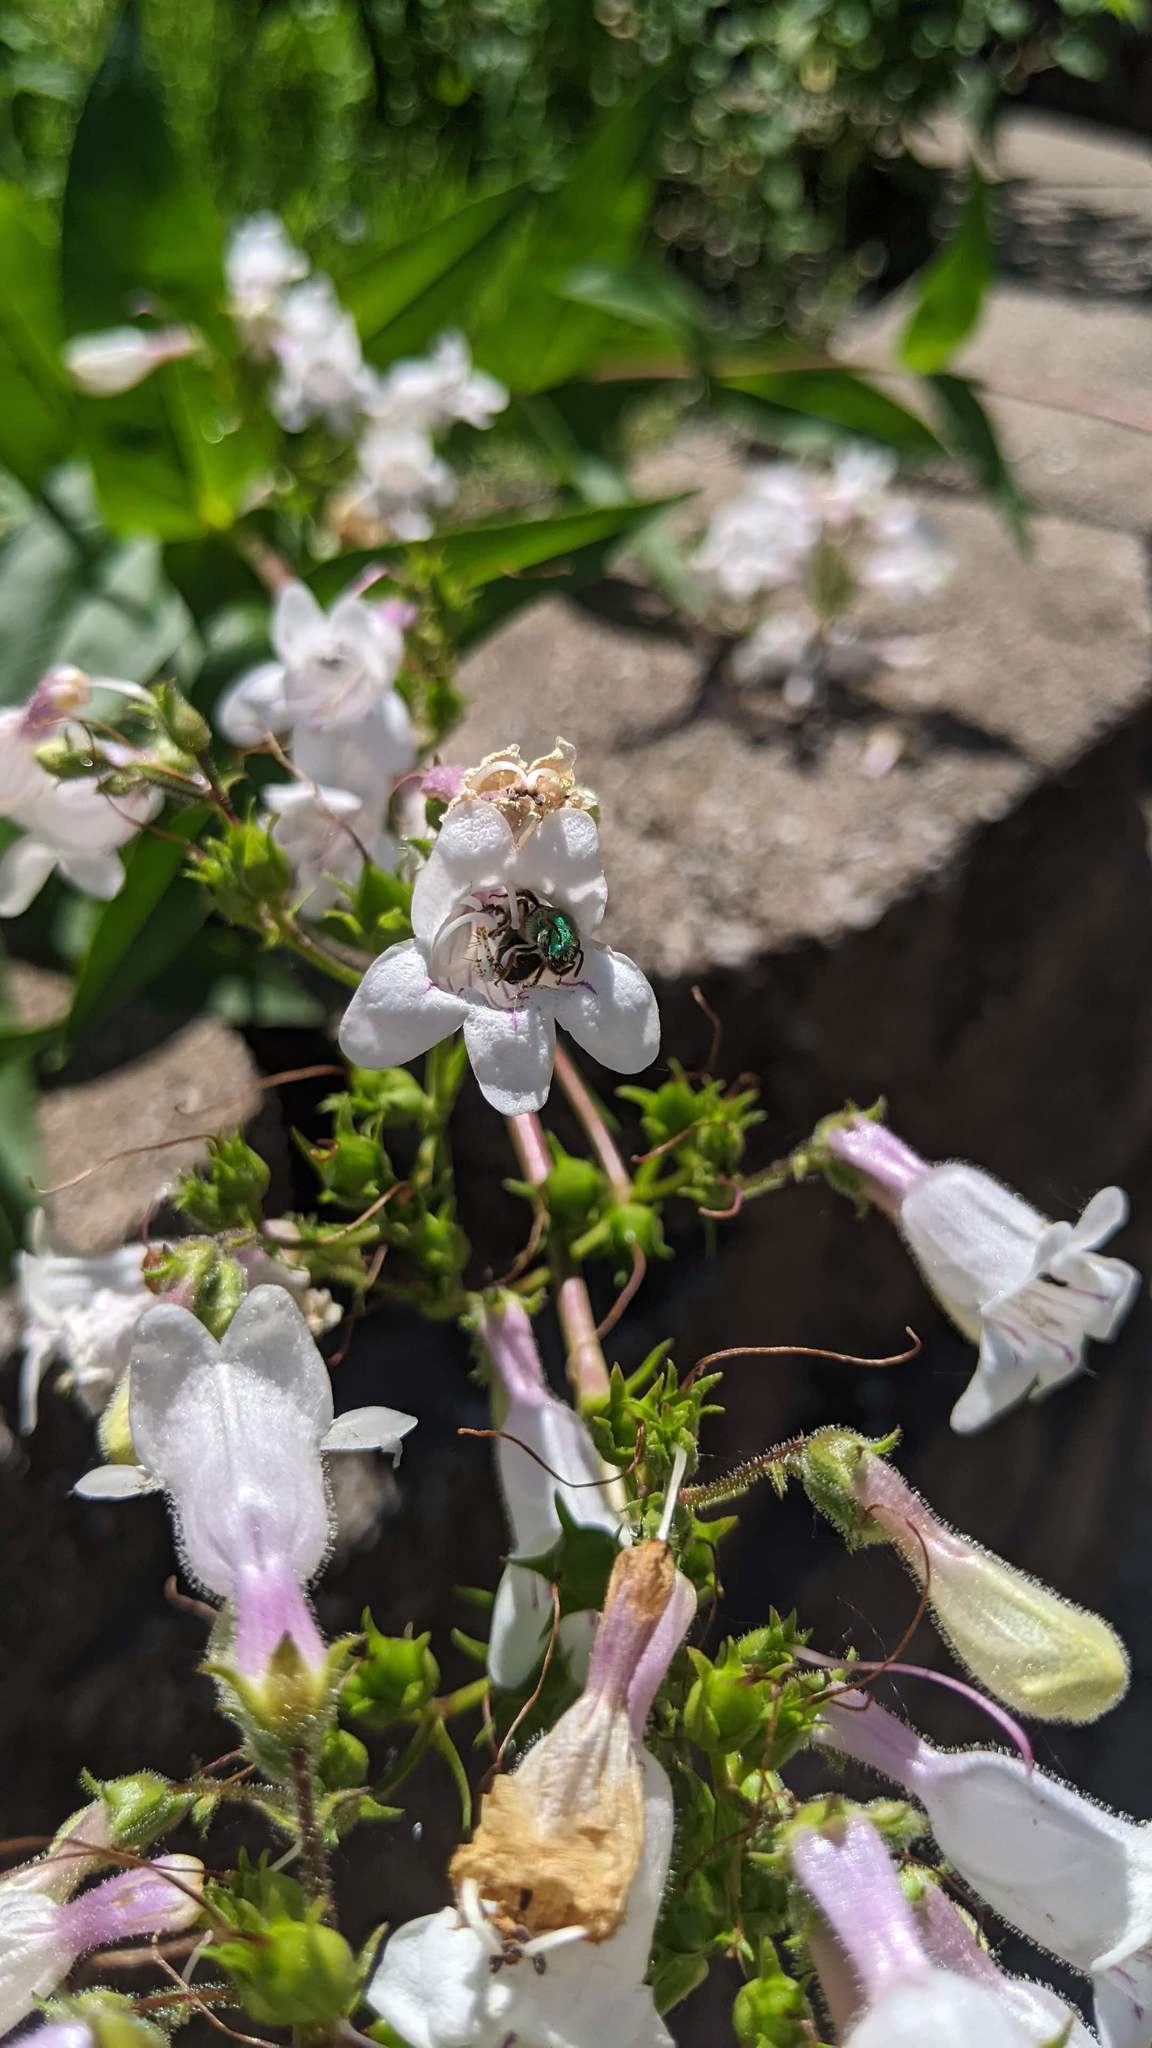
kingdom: Animalia
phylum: Arthropoda
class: Insecta
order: Hymenoptera
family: Halictidae
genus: Agapostemon
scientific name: Agapostemon virescens
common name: Bicolored striped sweat bee
